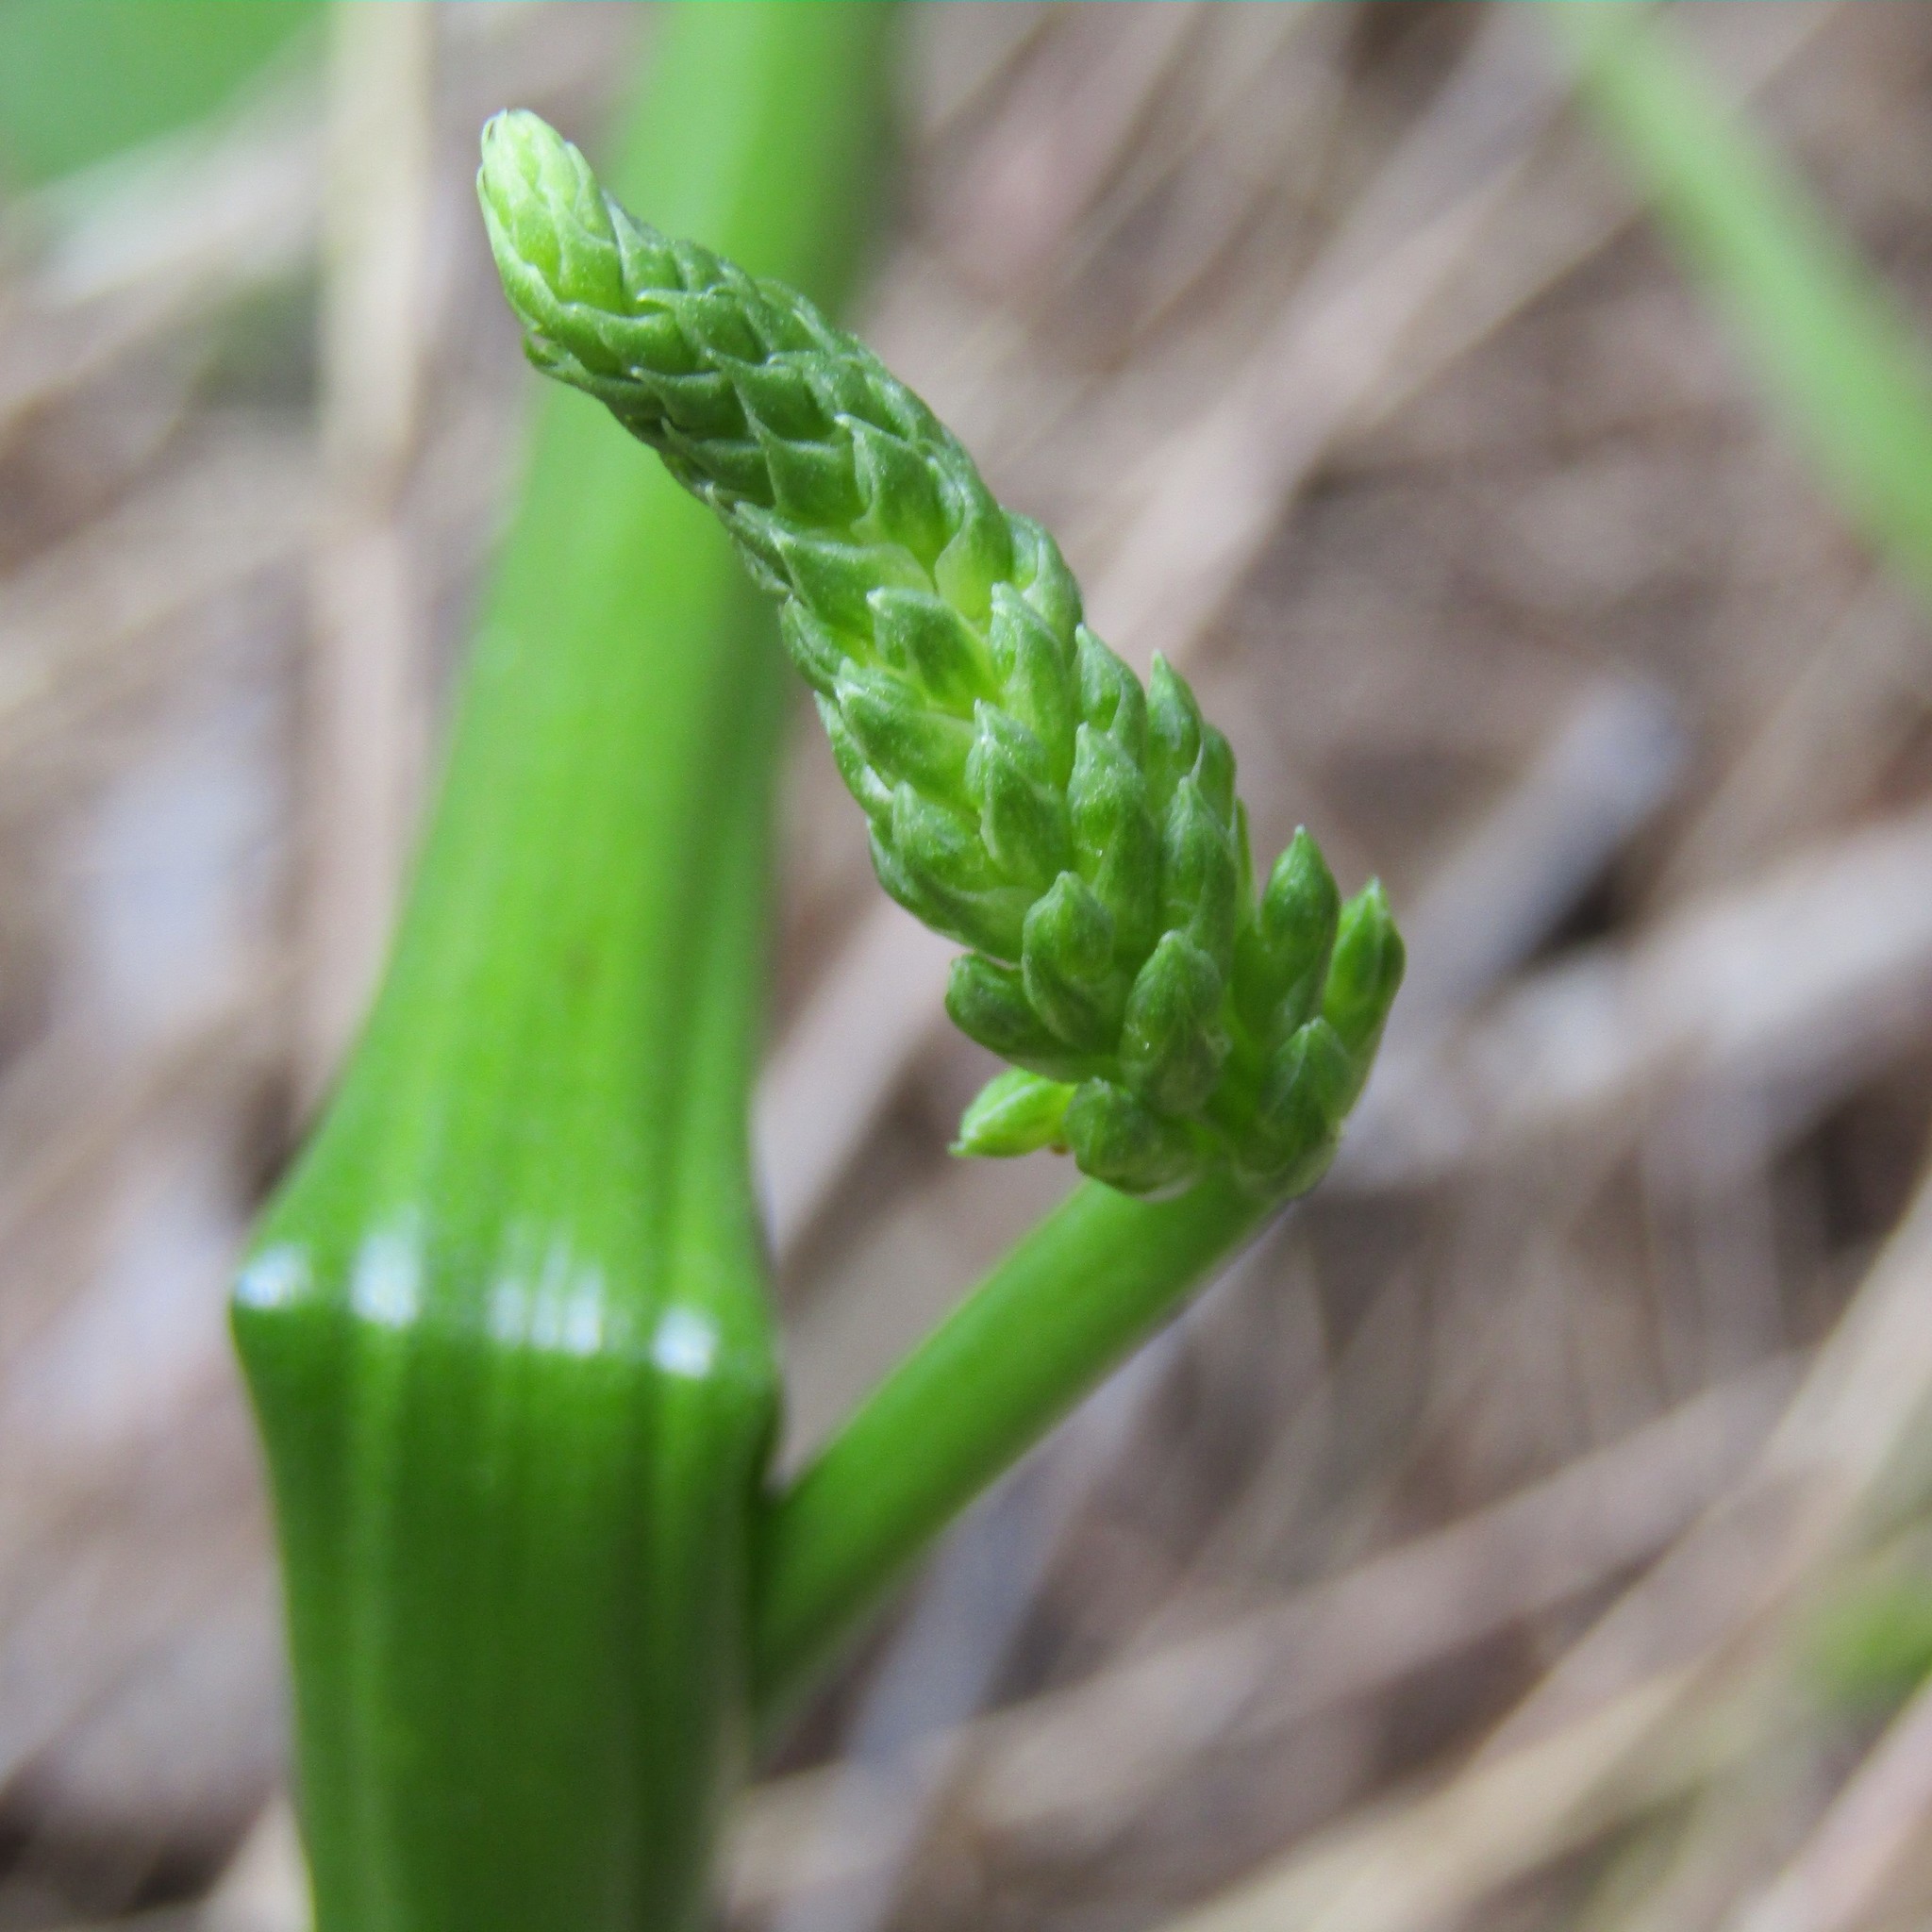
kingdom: Plantae
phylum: Tracheophyta
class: Liliopsida
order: Asparagales
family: Orchidaceae
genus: Microtis
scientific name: Microtis unifolia
